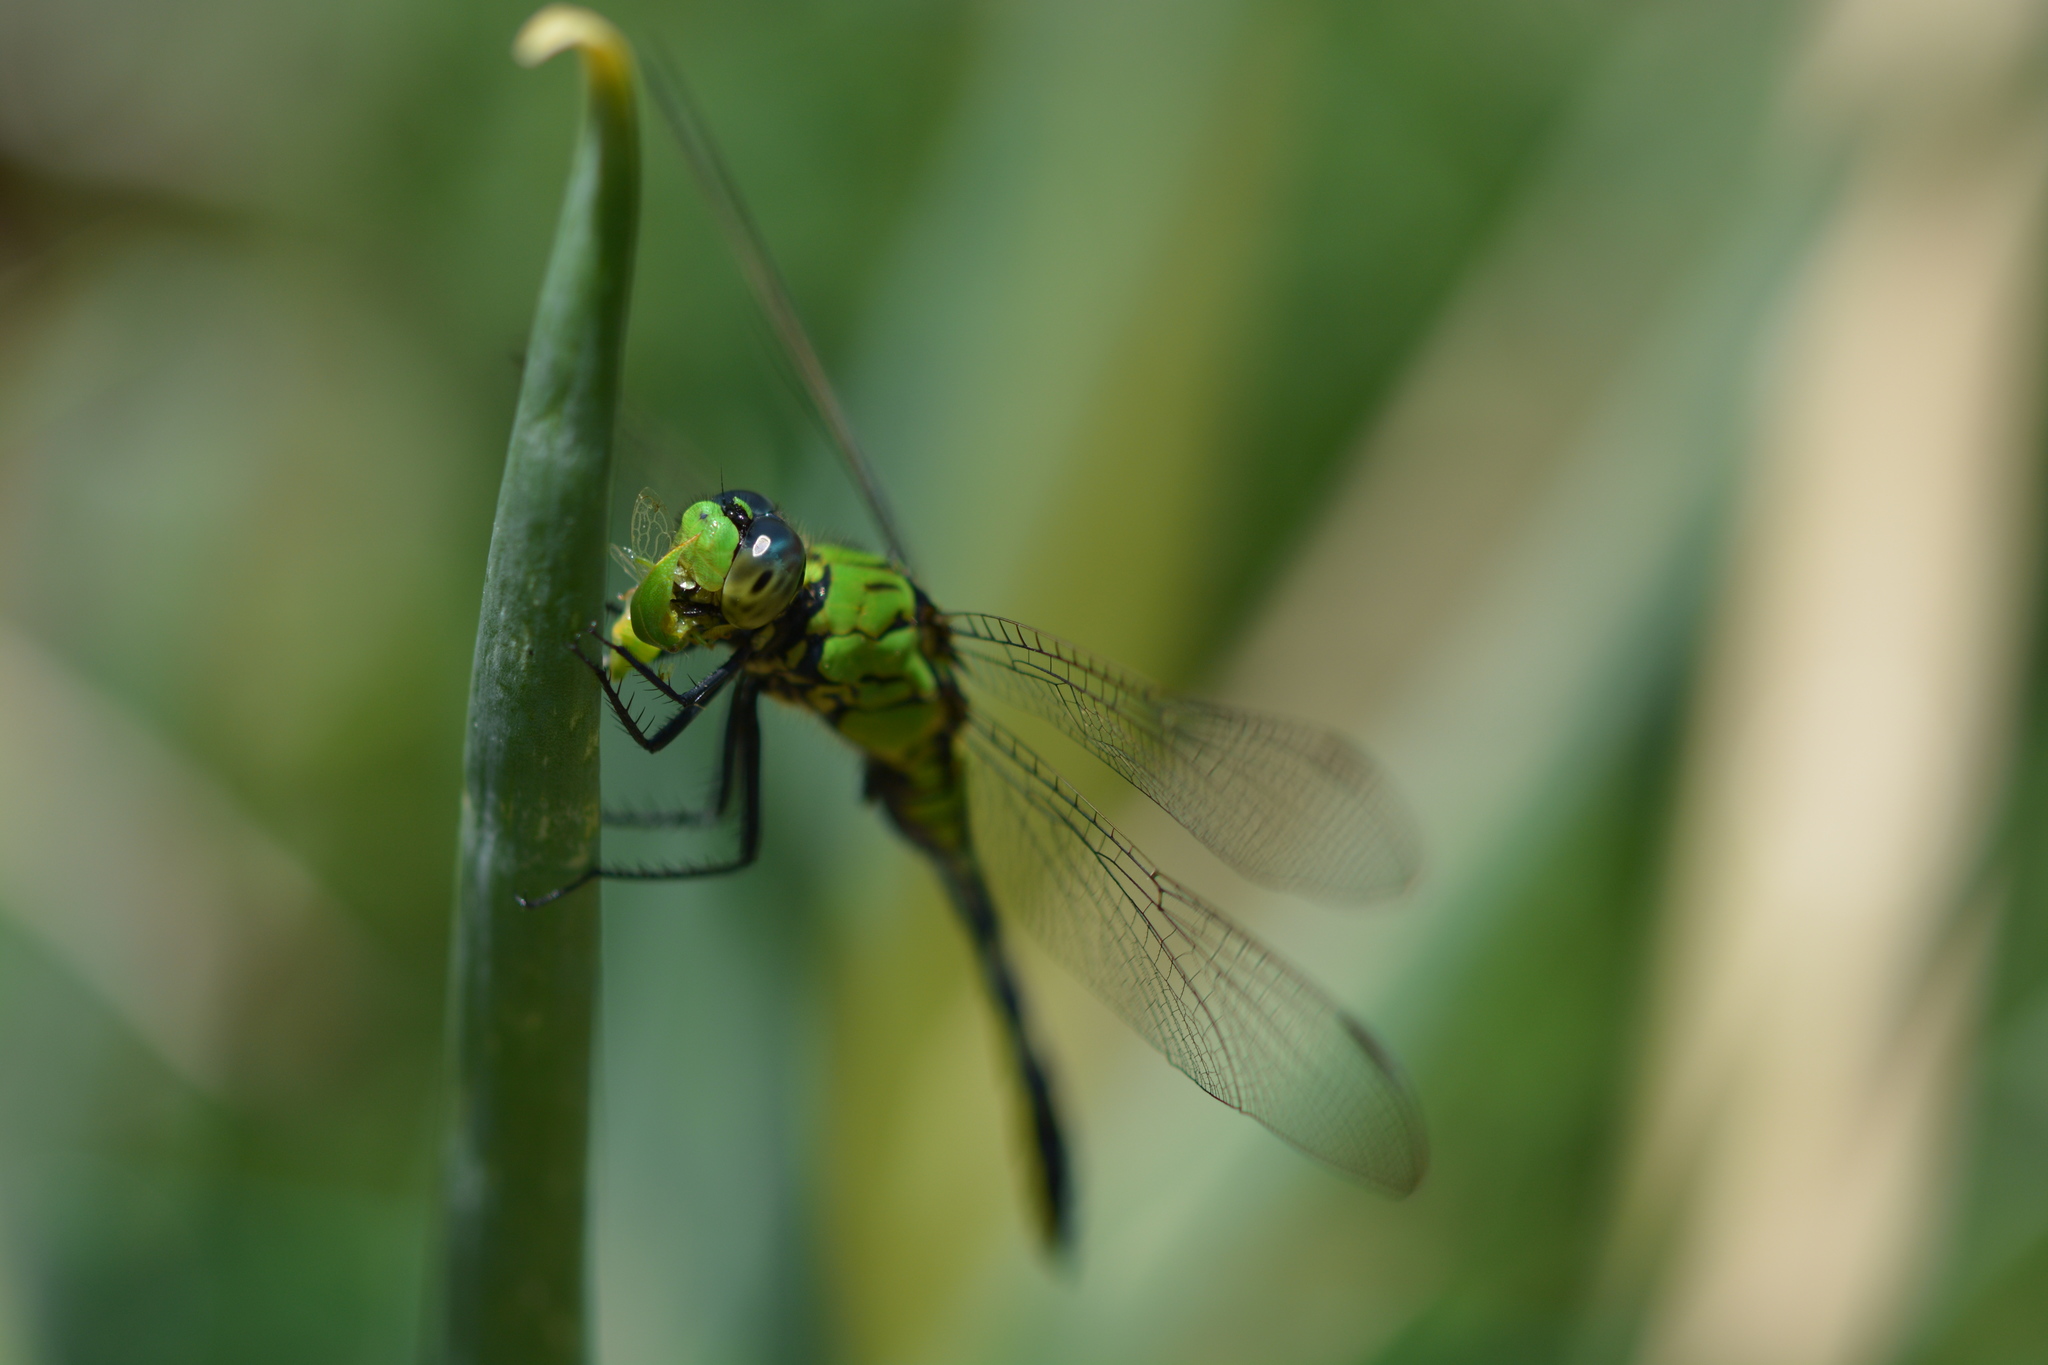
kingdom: Animalia
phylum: Arthropoda
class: Insecta
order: Odonata
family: Libellulidae
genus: Erythemis
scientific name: Erythemis simplicicollis
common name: Eastern pondhawk
